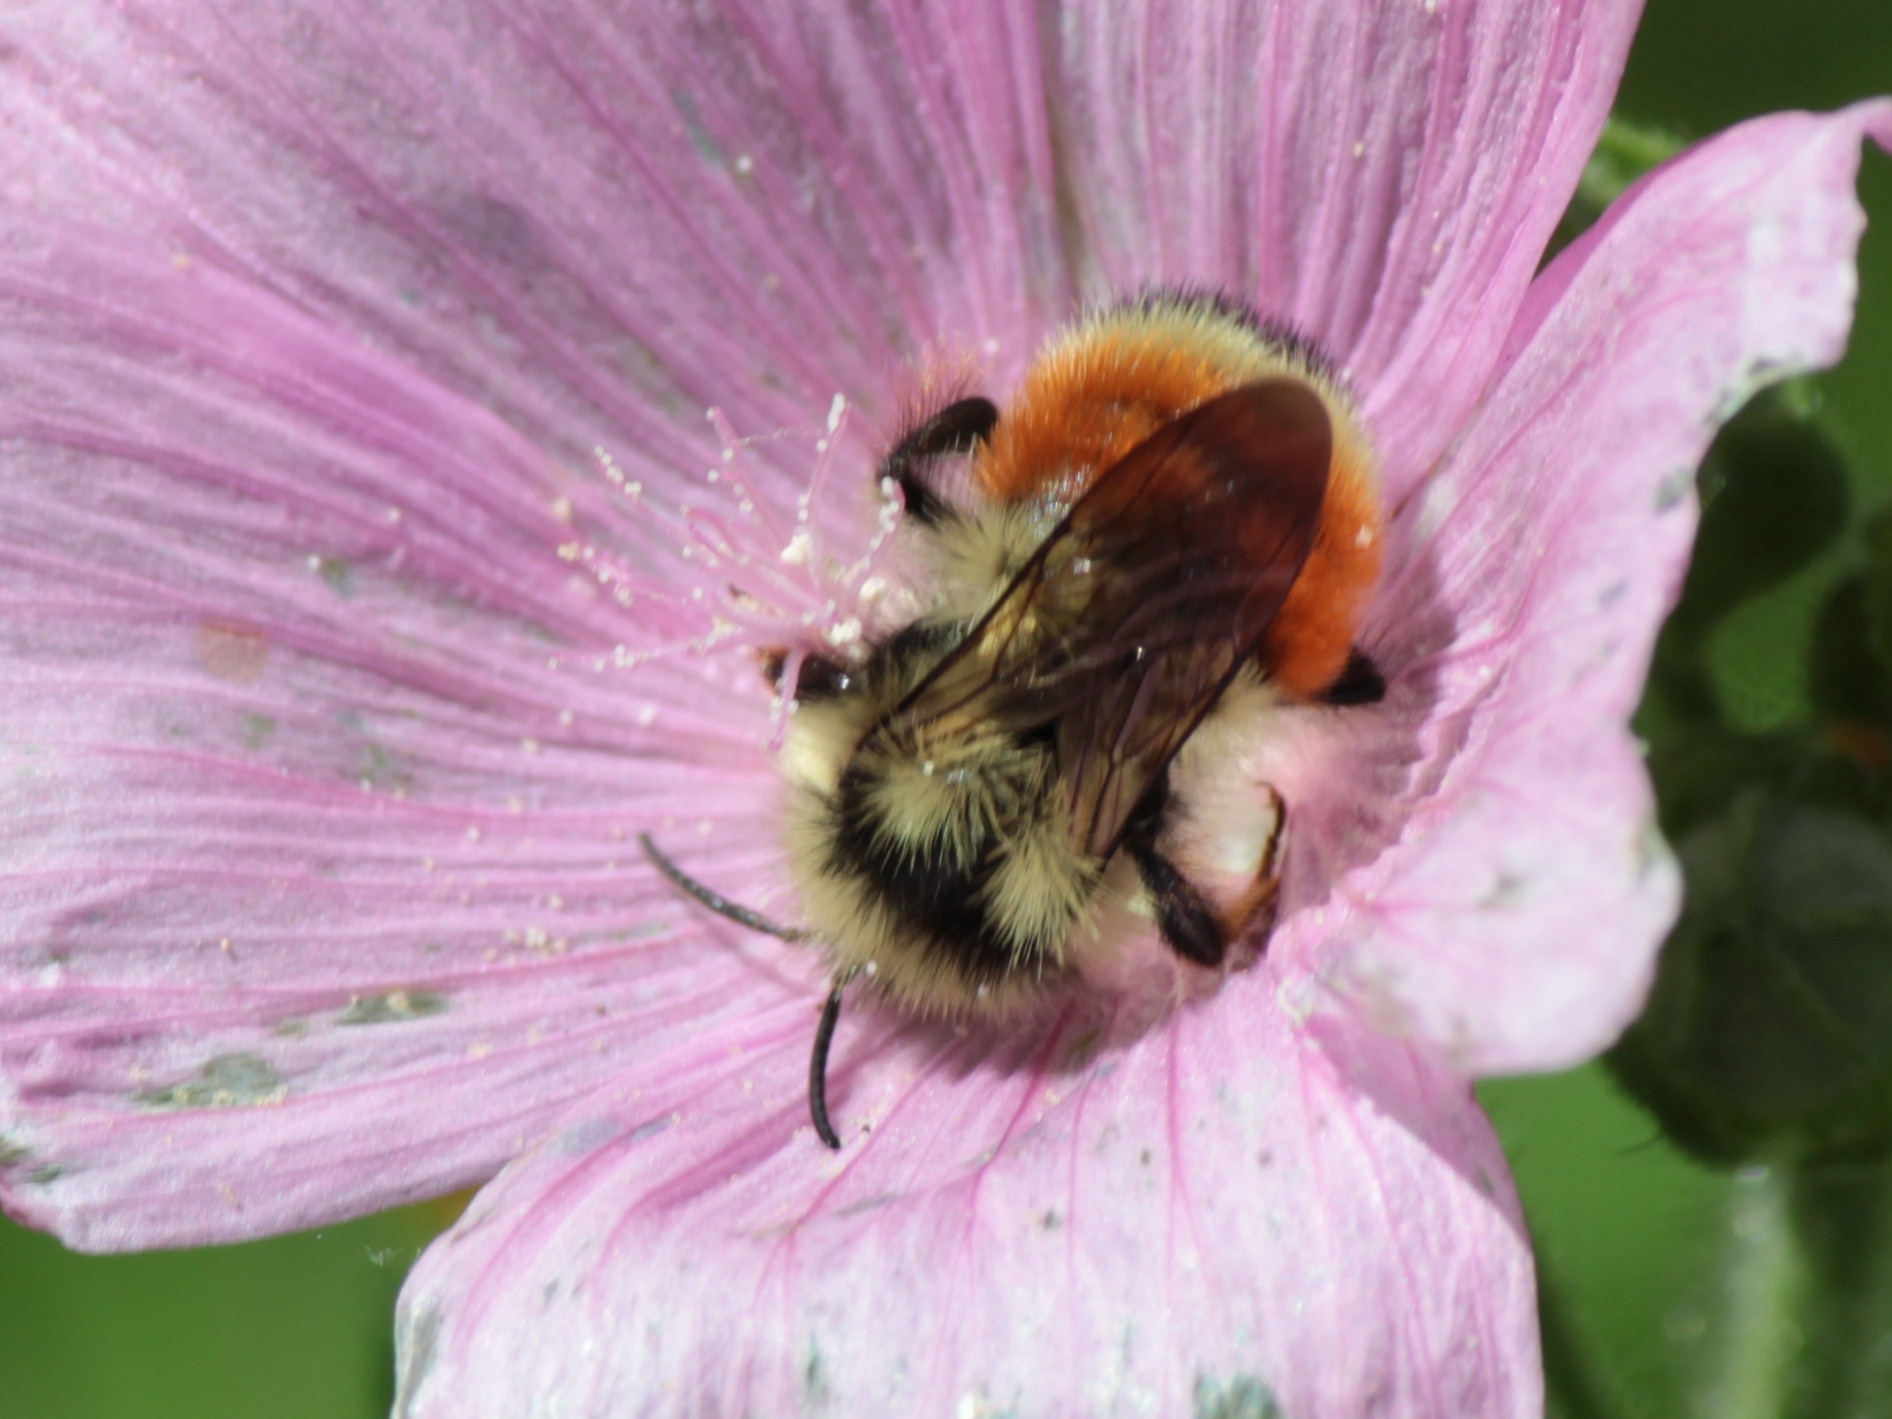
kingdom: Animalia
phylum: Arthropoda
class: Insecta
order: Hymenoptera
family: Apidae
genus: Bombus
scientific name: Bombus ternarius
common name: Tri-colored bumble bee
